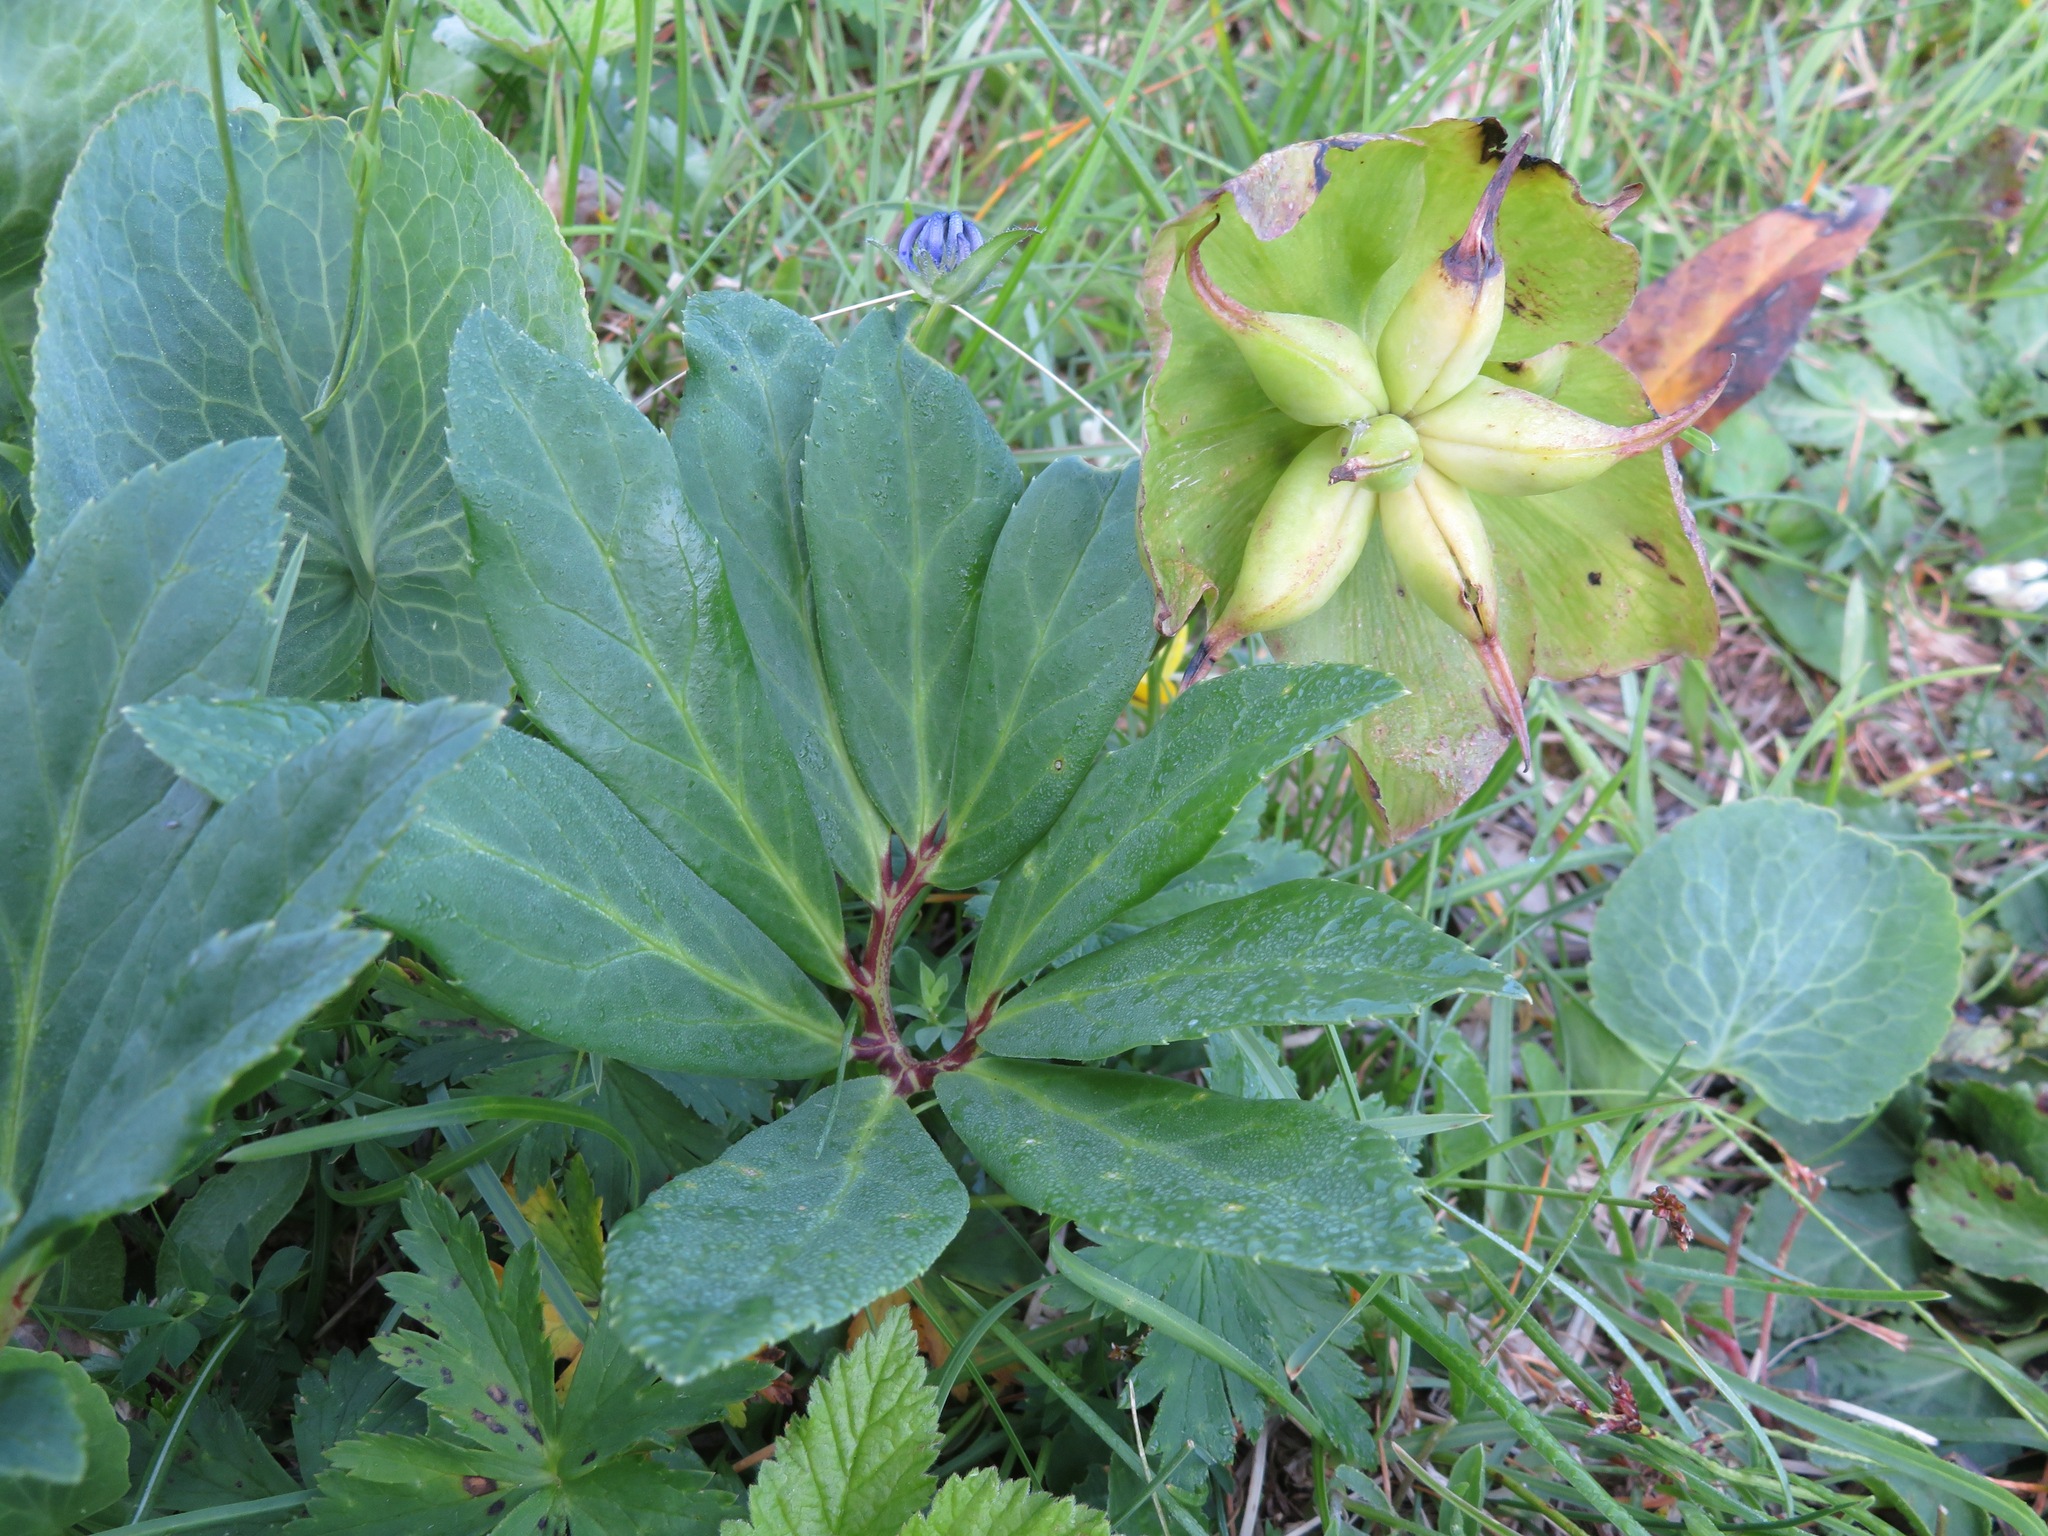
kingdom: Plantae
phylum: Tracheophyta
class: Magnoliopsida
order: Ranunculales
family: Ranunculaceae
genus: Helleborus
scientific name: Helleborus niger
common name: Black hellebore
